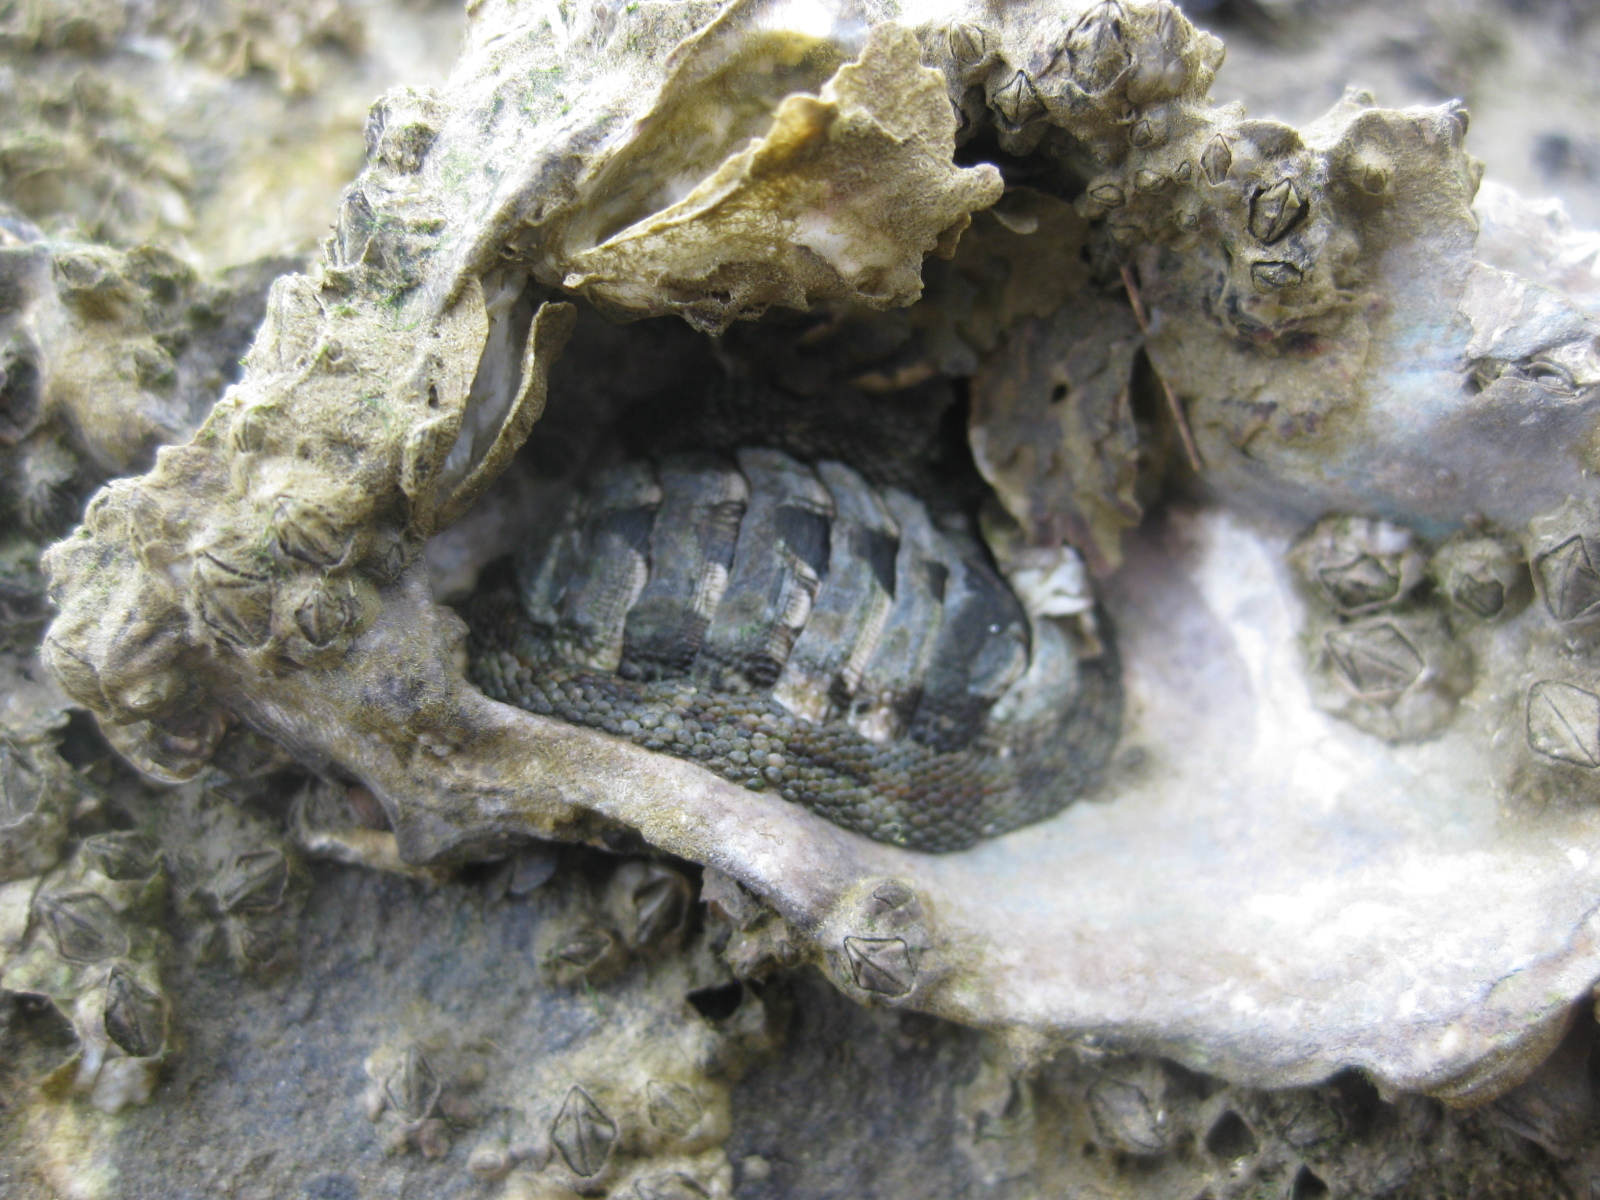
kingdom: Animalia
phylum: Mollusca
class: Polyplacophora
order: Chitonida
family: Chitonidae
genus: Sypharochiton
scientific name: Sypharochiton pelliserpentis
